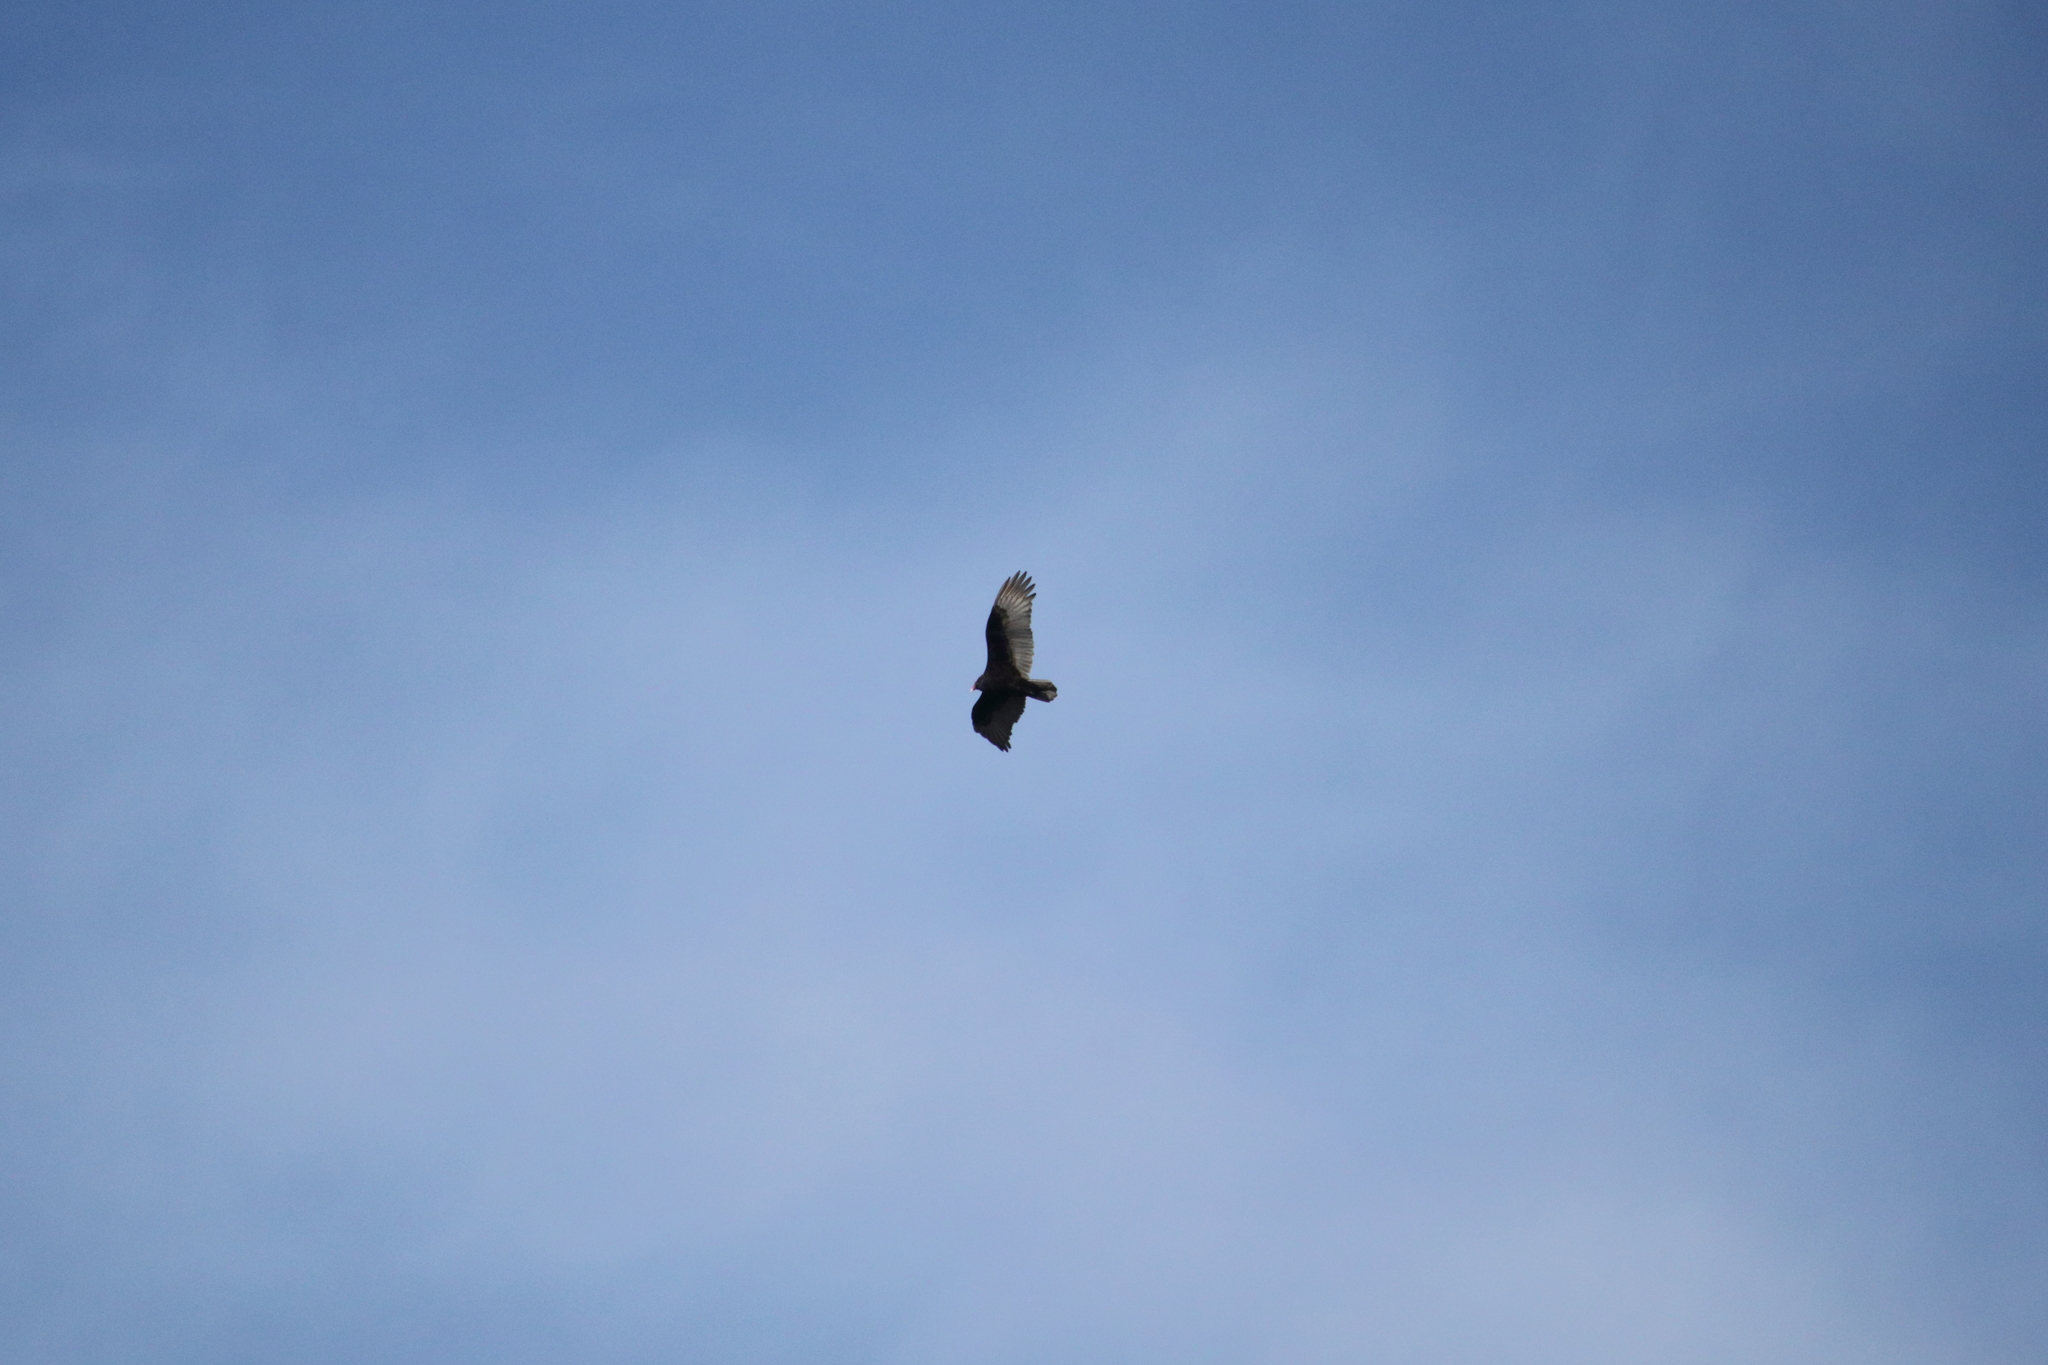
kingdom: Animalia
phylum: Chordata
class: Aves
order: Accipitriformes
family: Cathartidae
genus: Cathartes
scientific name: Cathartes aura
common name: Turkey vulture
